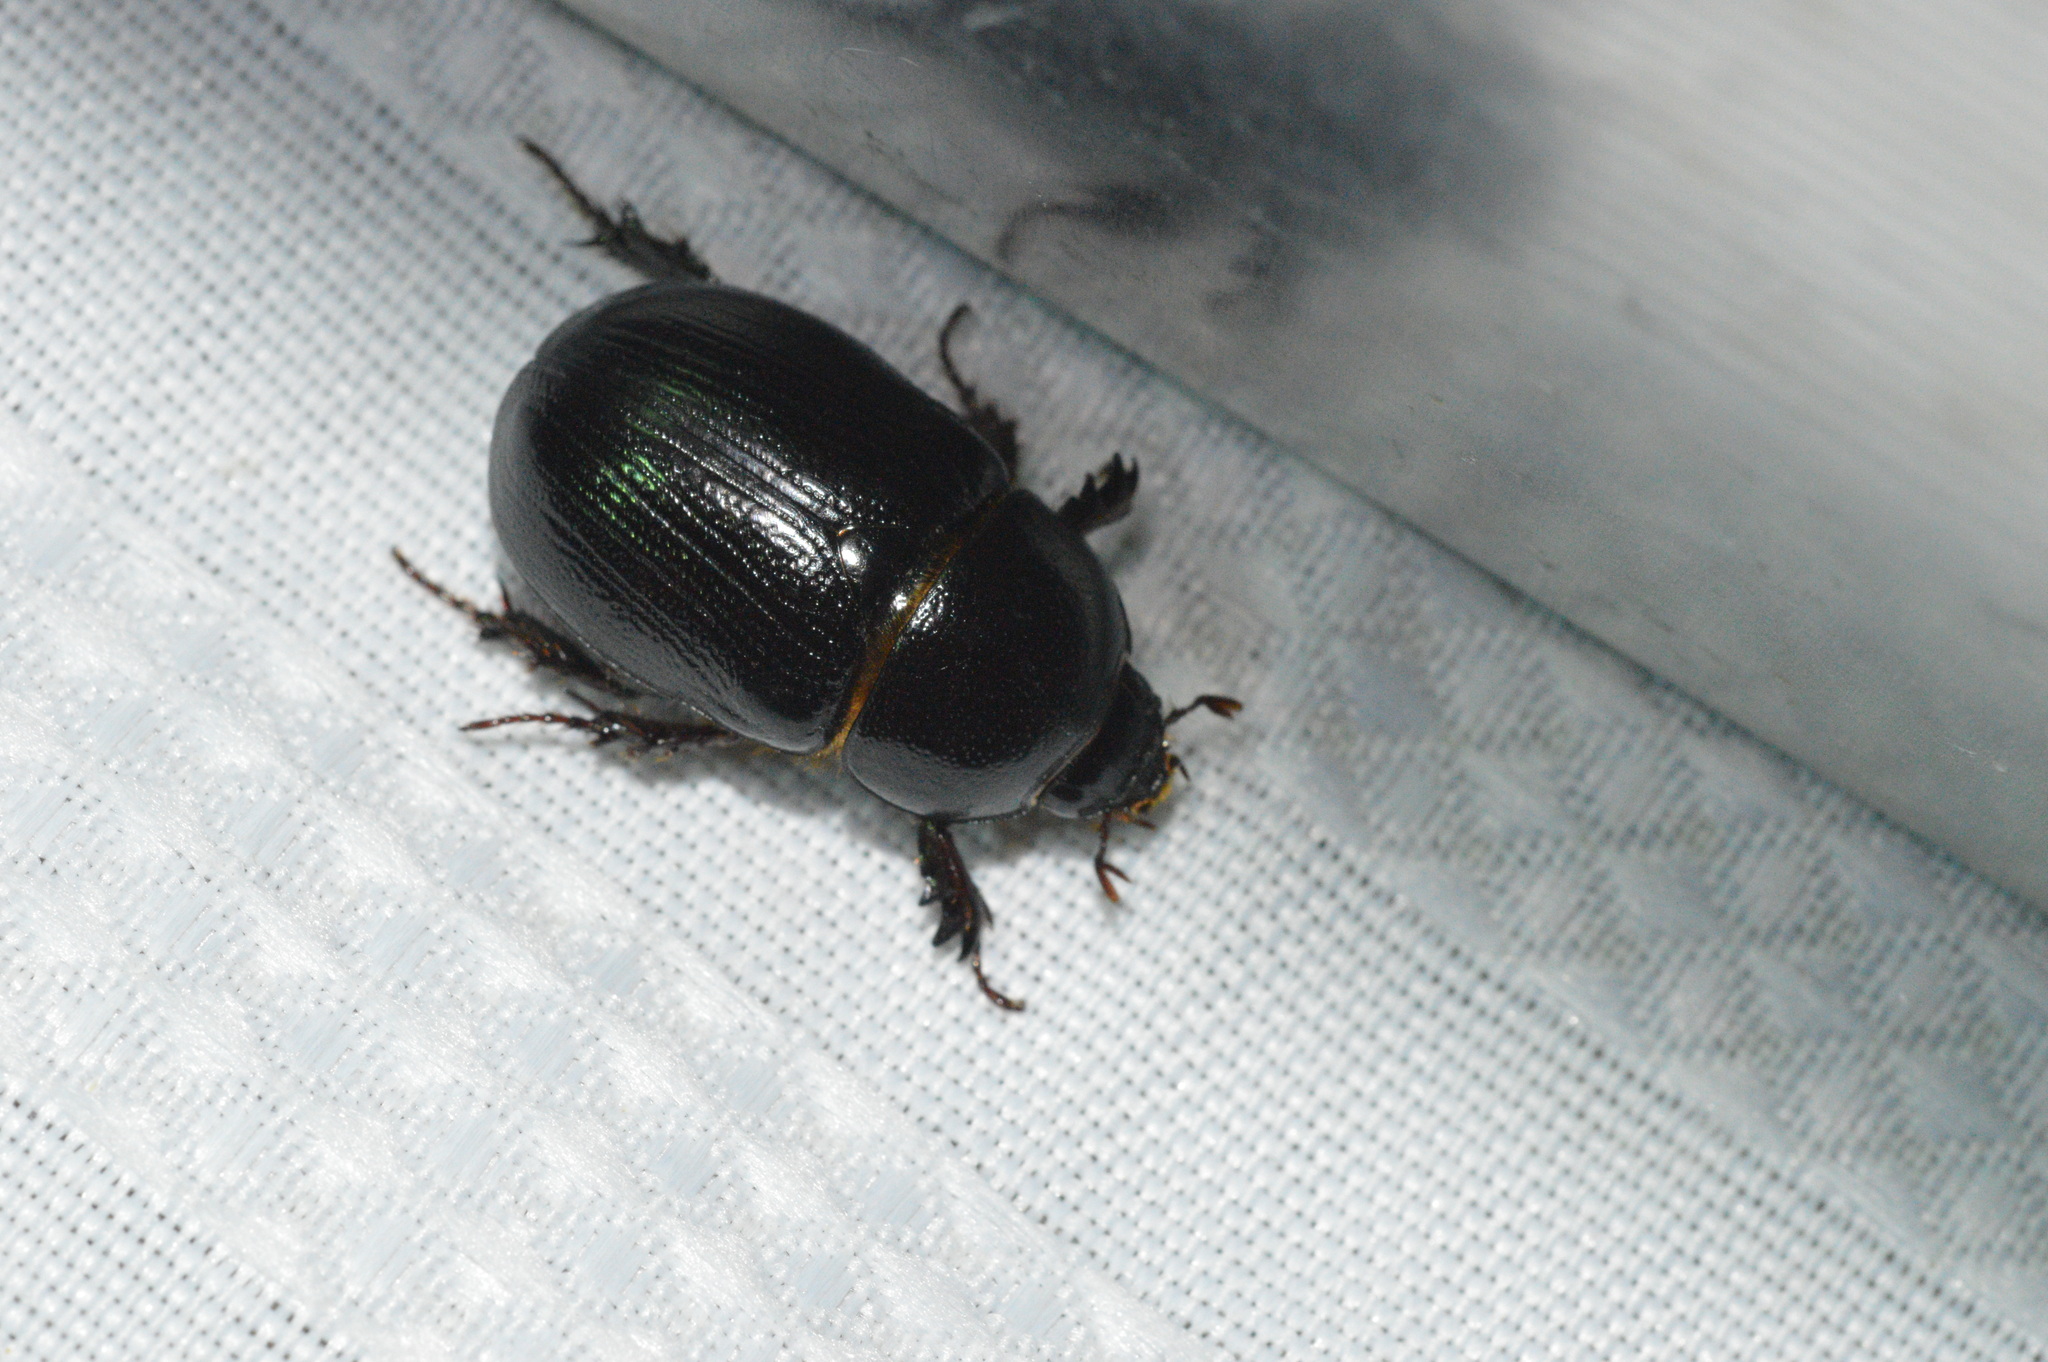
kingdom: Animalia
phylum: Arthropoda
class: Insecta
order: Coleoptera
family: Scarabaeidae
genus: Ligyrus
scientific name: Ligyrus relictus
